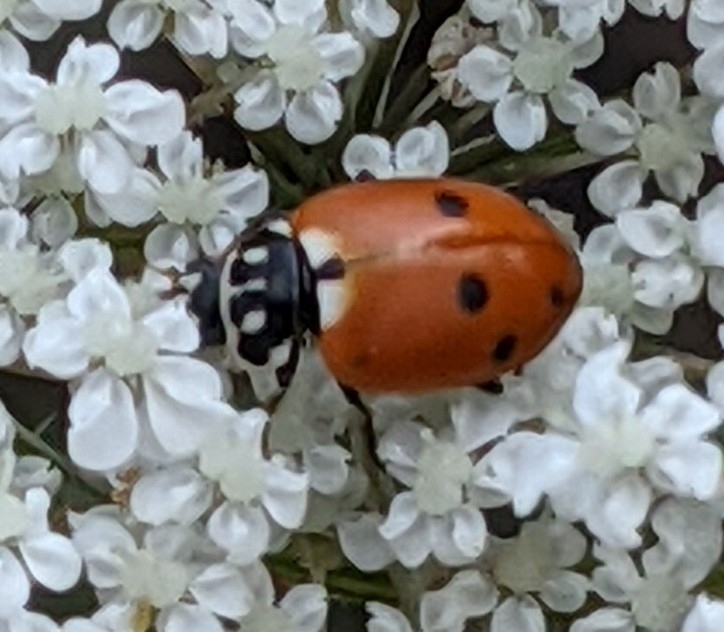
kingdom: Animalia
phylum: Arthropoda
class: Insecta
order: Coleoptera
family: Coccinellidae
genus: Hippodamia
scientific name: Hippodamia variegata
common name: Ladybird beetle
